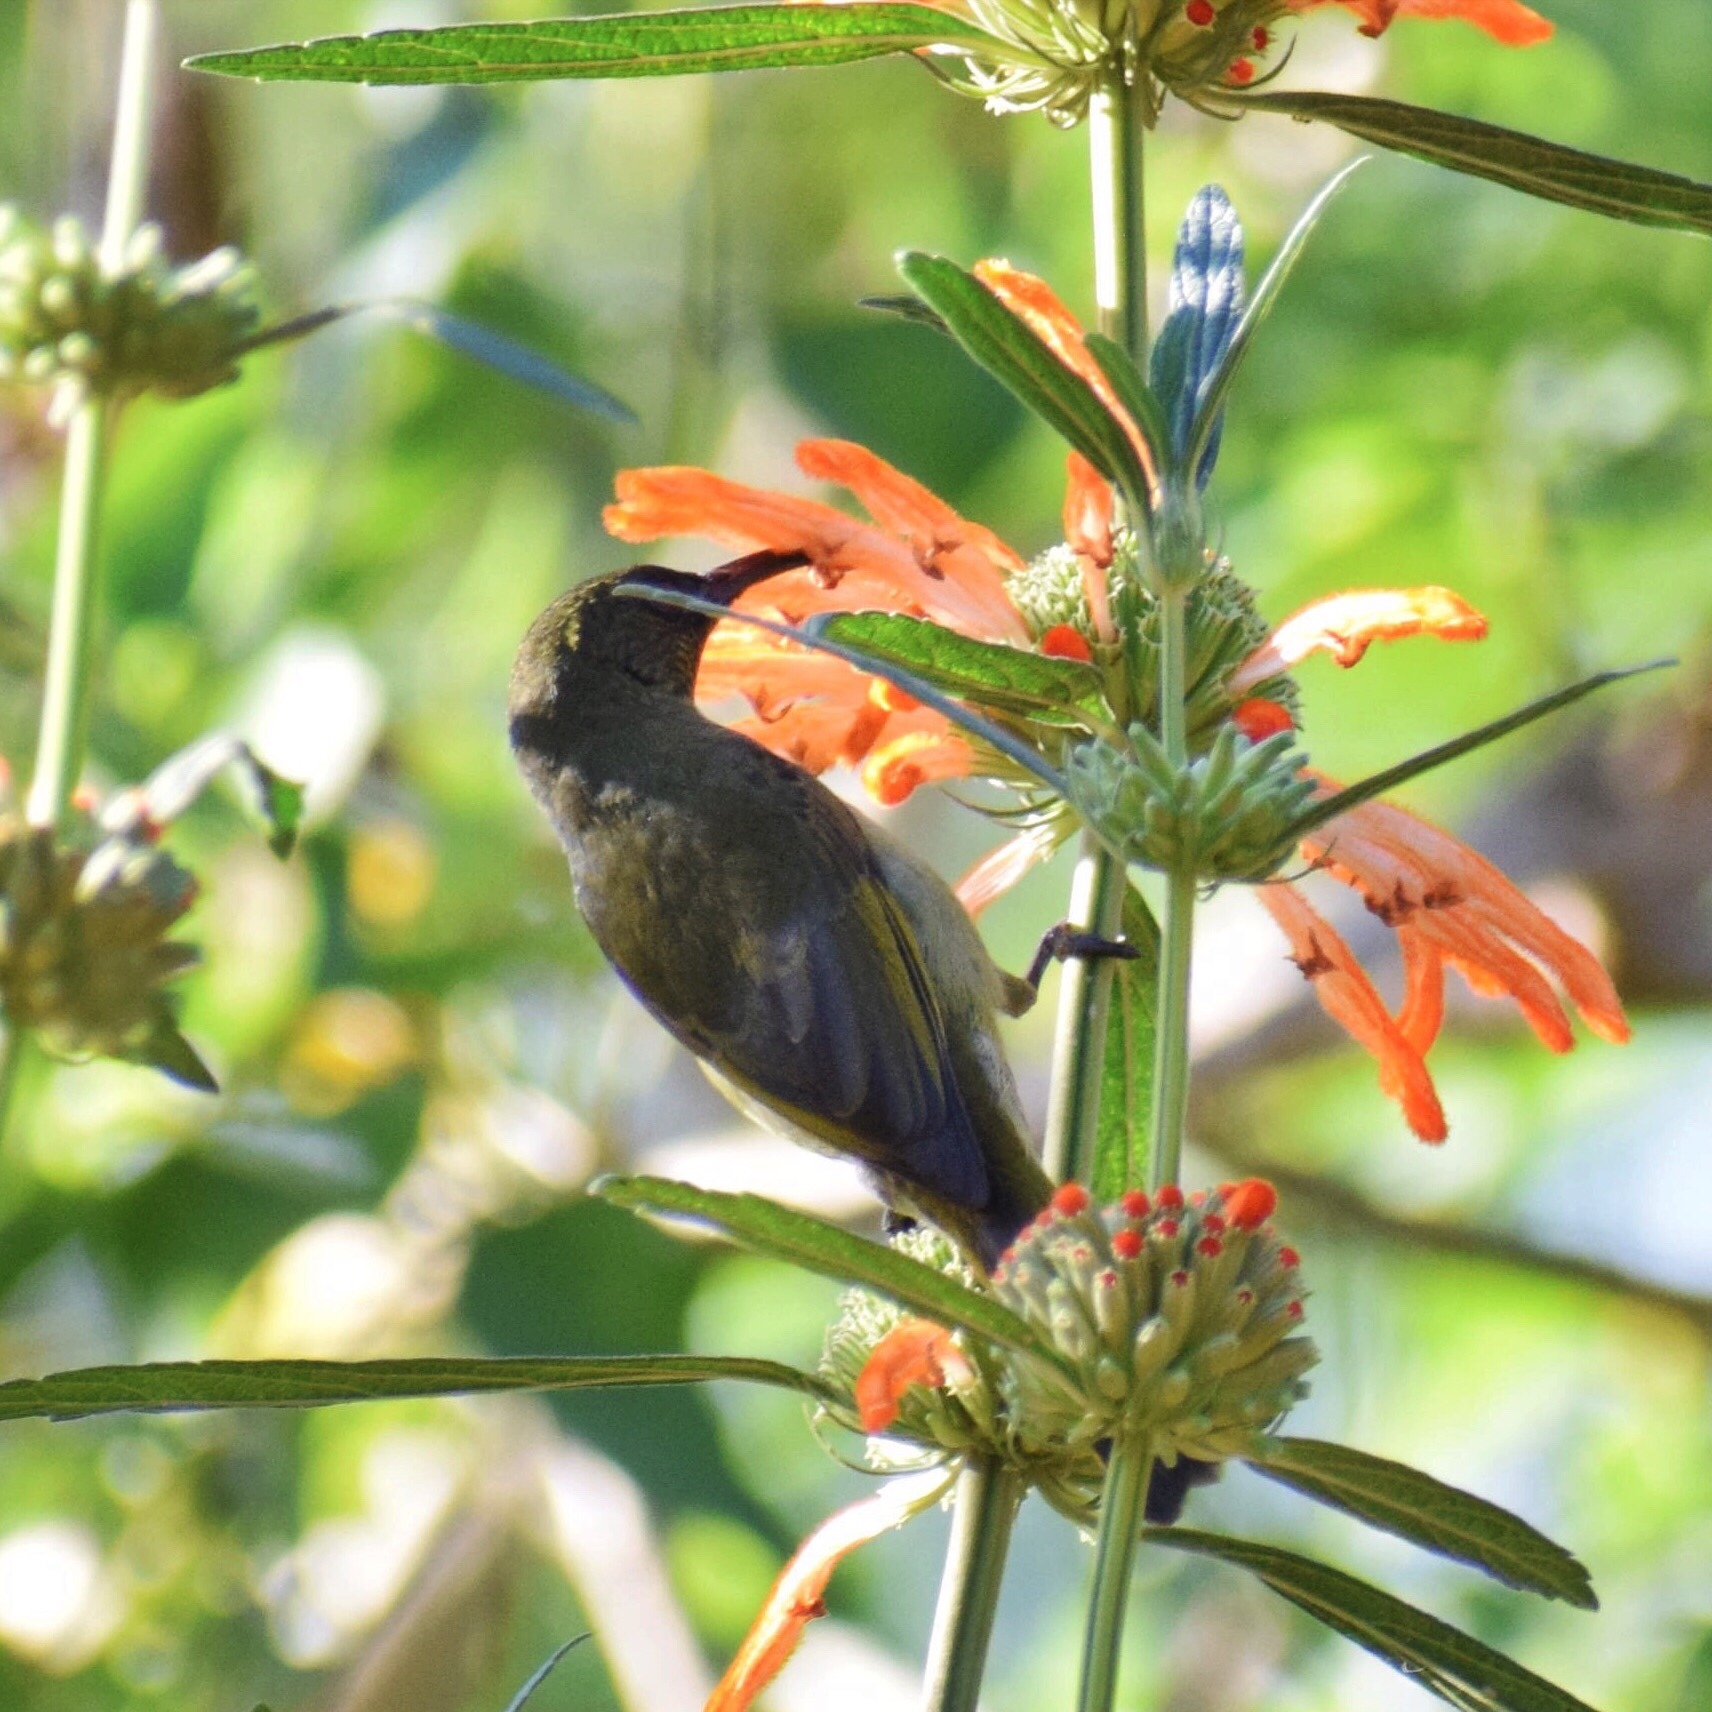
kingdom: Animalia
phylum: Chordata
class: Aves
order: Passeriformes
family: Nectariniidae
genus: Cyanomitra
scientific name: Cyanomitra olivacea
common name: Olive sunbird
